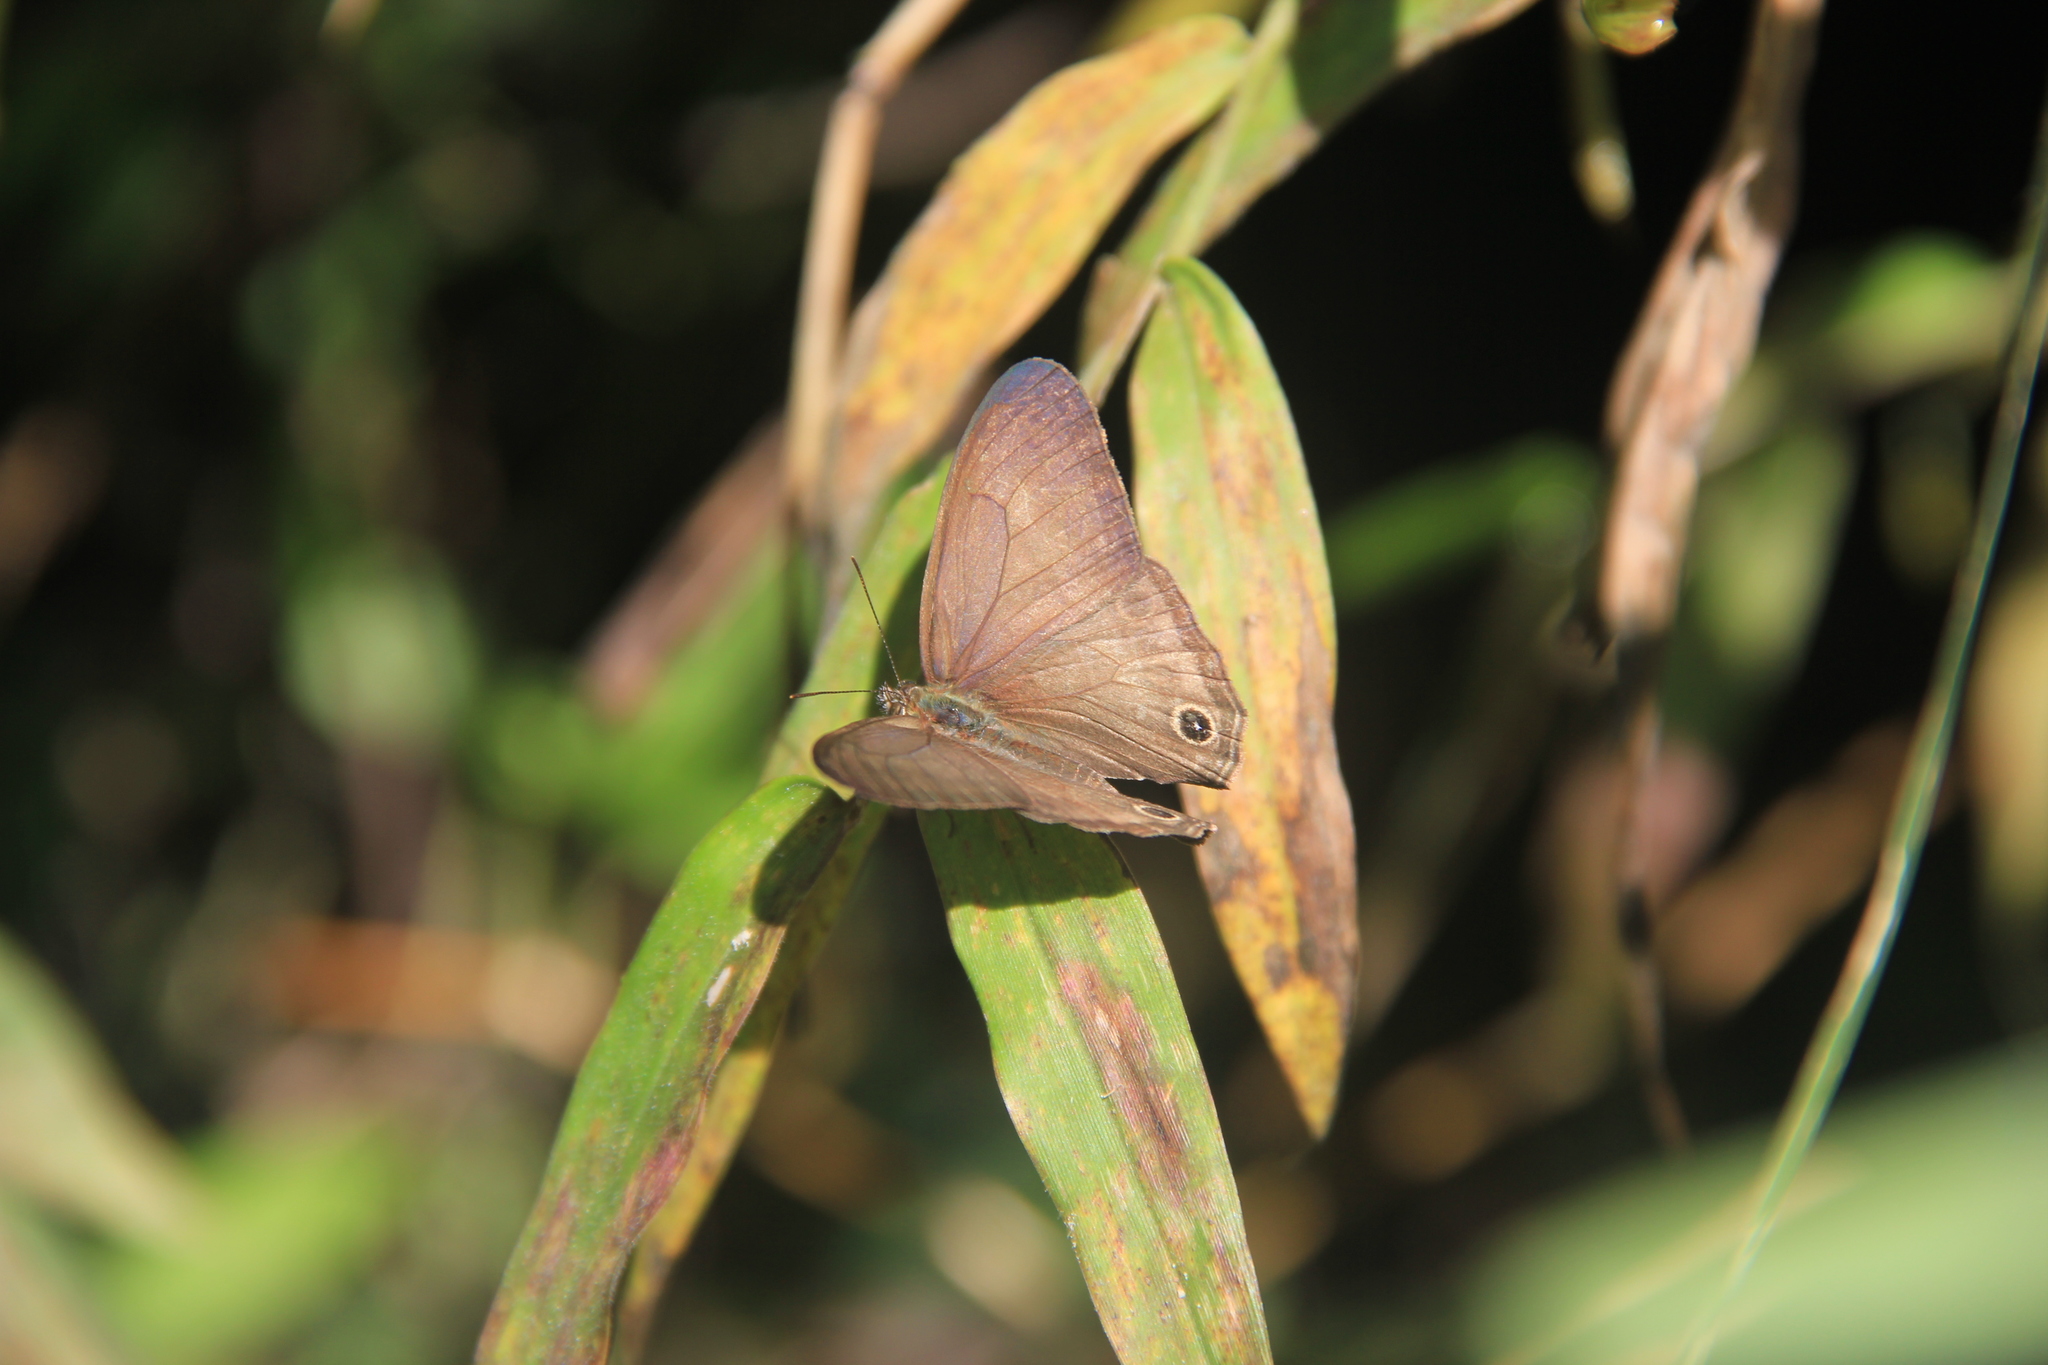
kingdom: Animalia
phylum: Arthropoda
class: Insecta
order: Lepidoptera
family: Nymphalidae
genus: Euptychoides
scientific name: Euptychoides saturnus
